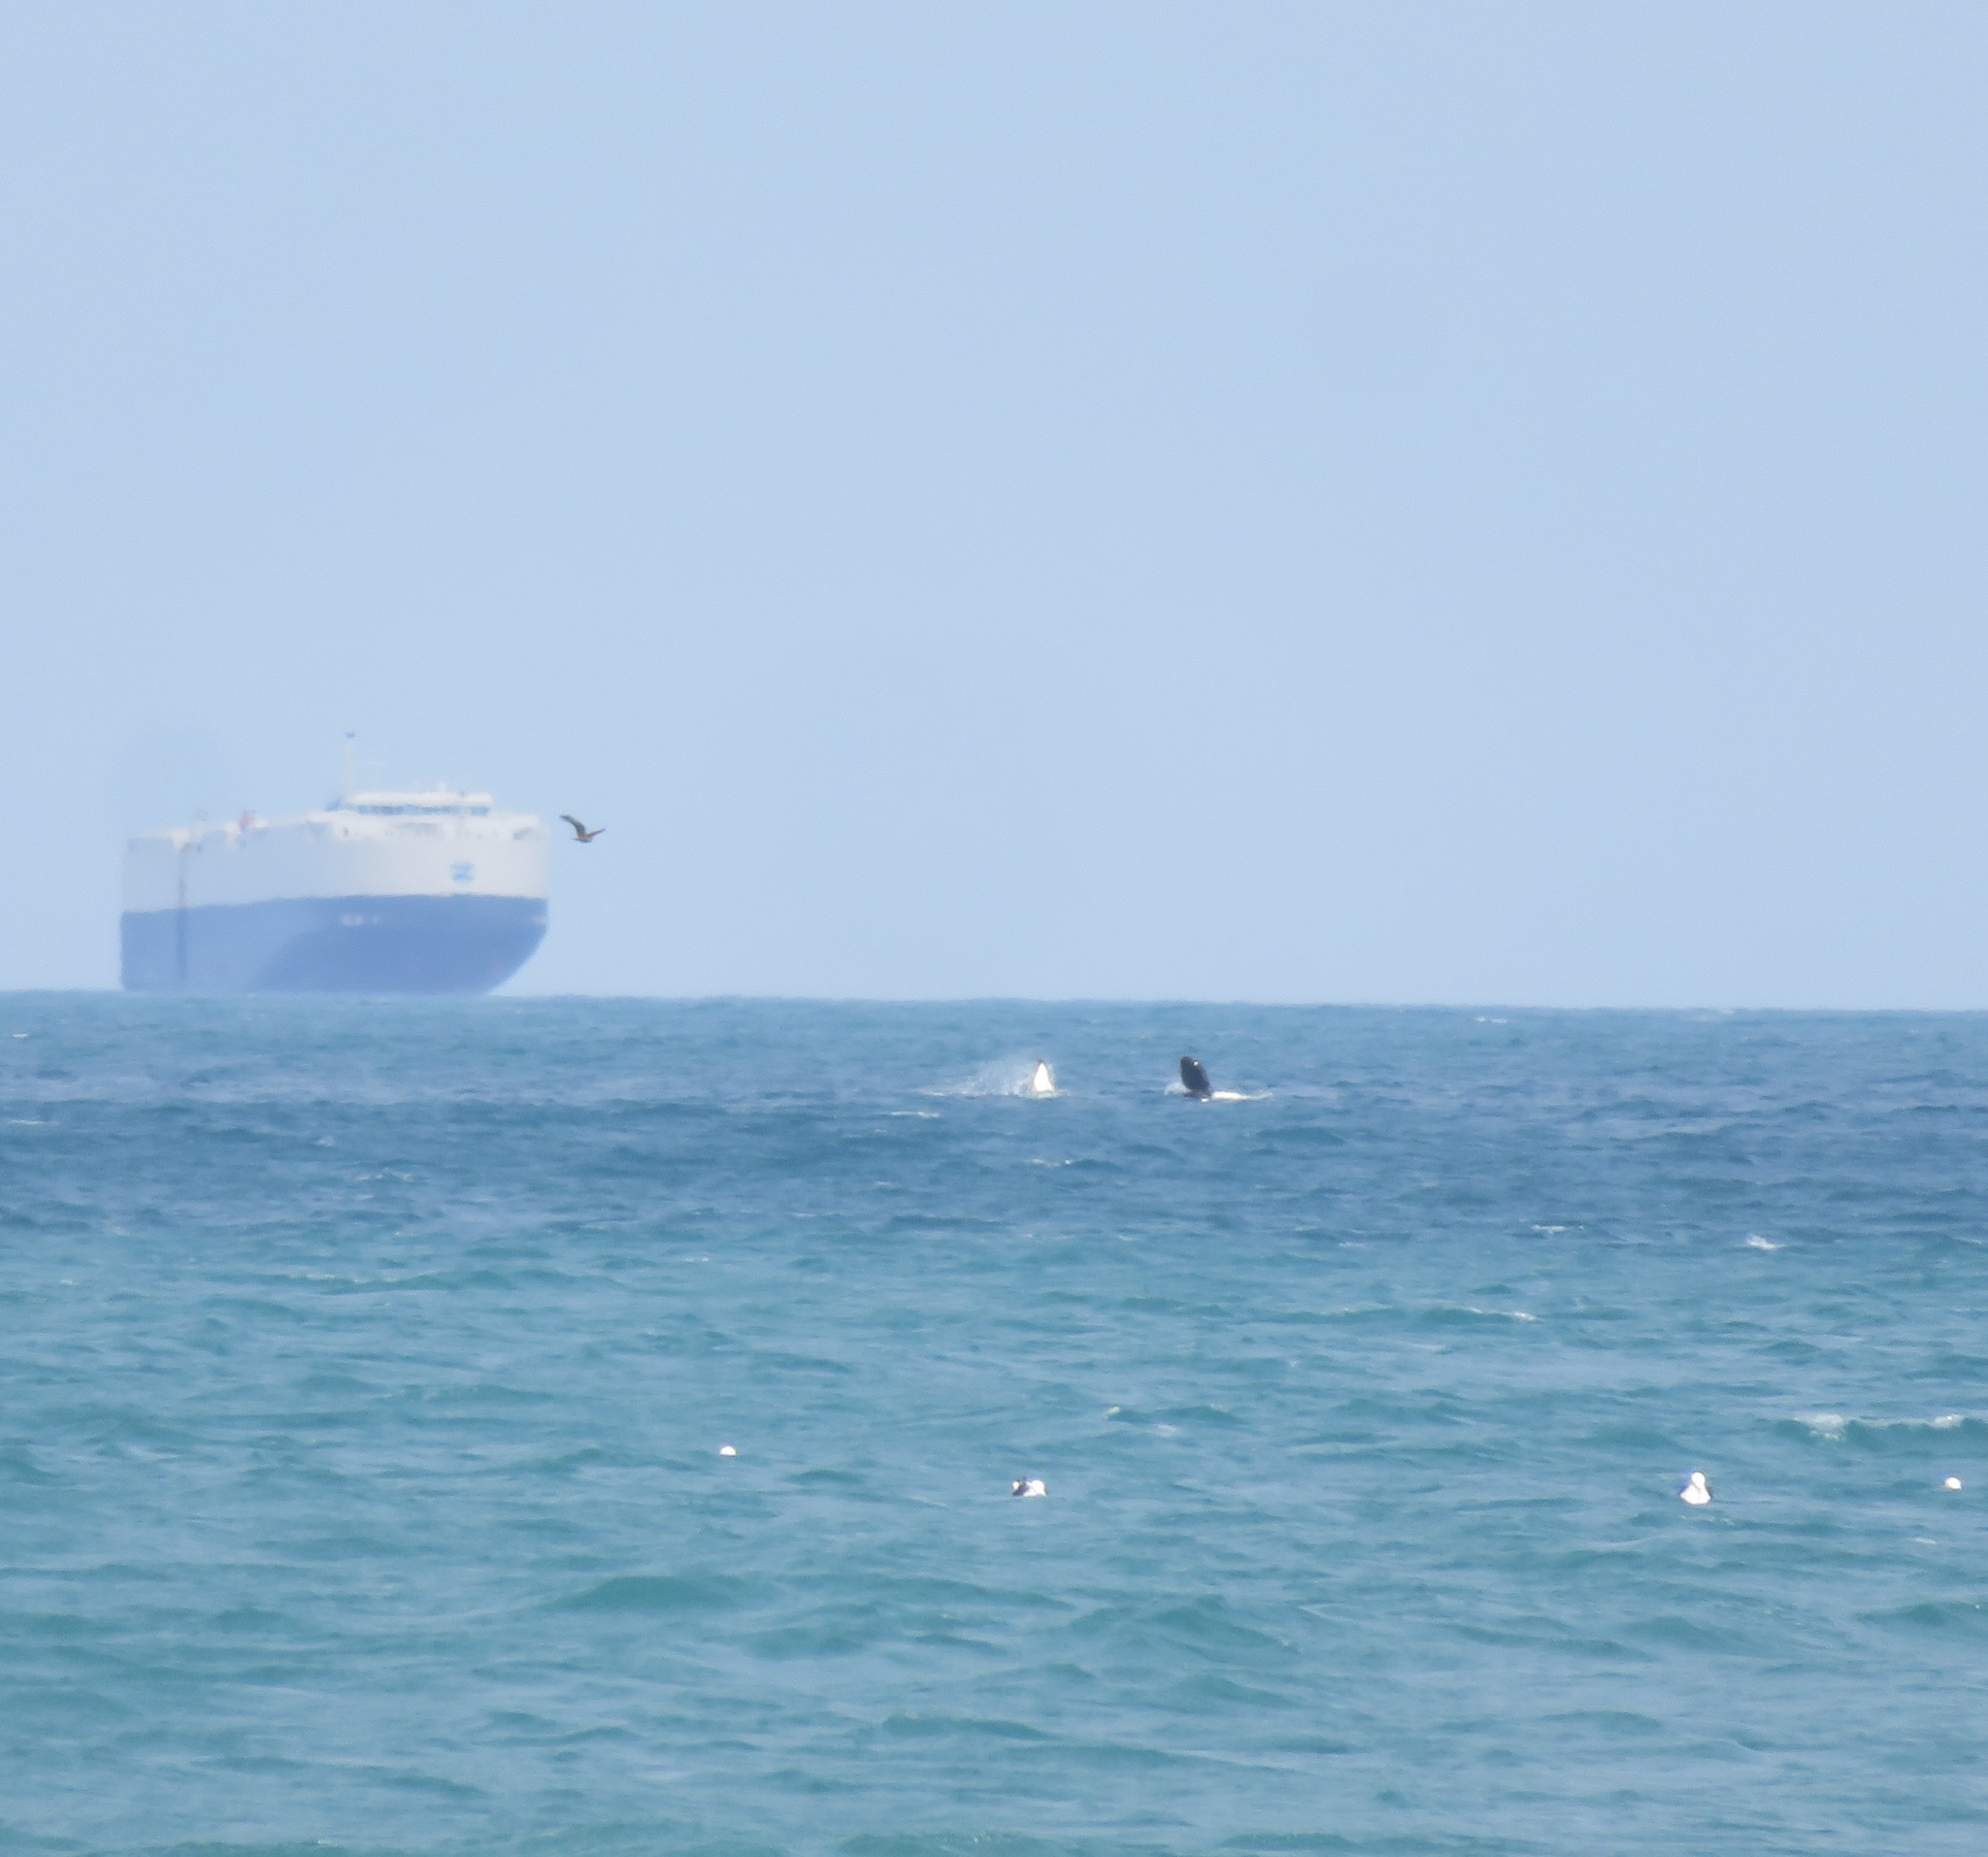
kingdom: Animalia
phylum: Chordata
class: Mammalia
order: Cetacea
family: Delphinidae
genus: Orcinus
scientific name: Orcinus orca
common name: Killer whale
